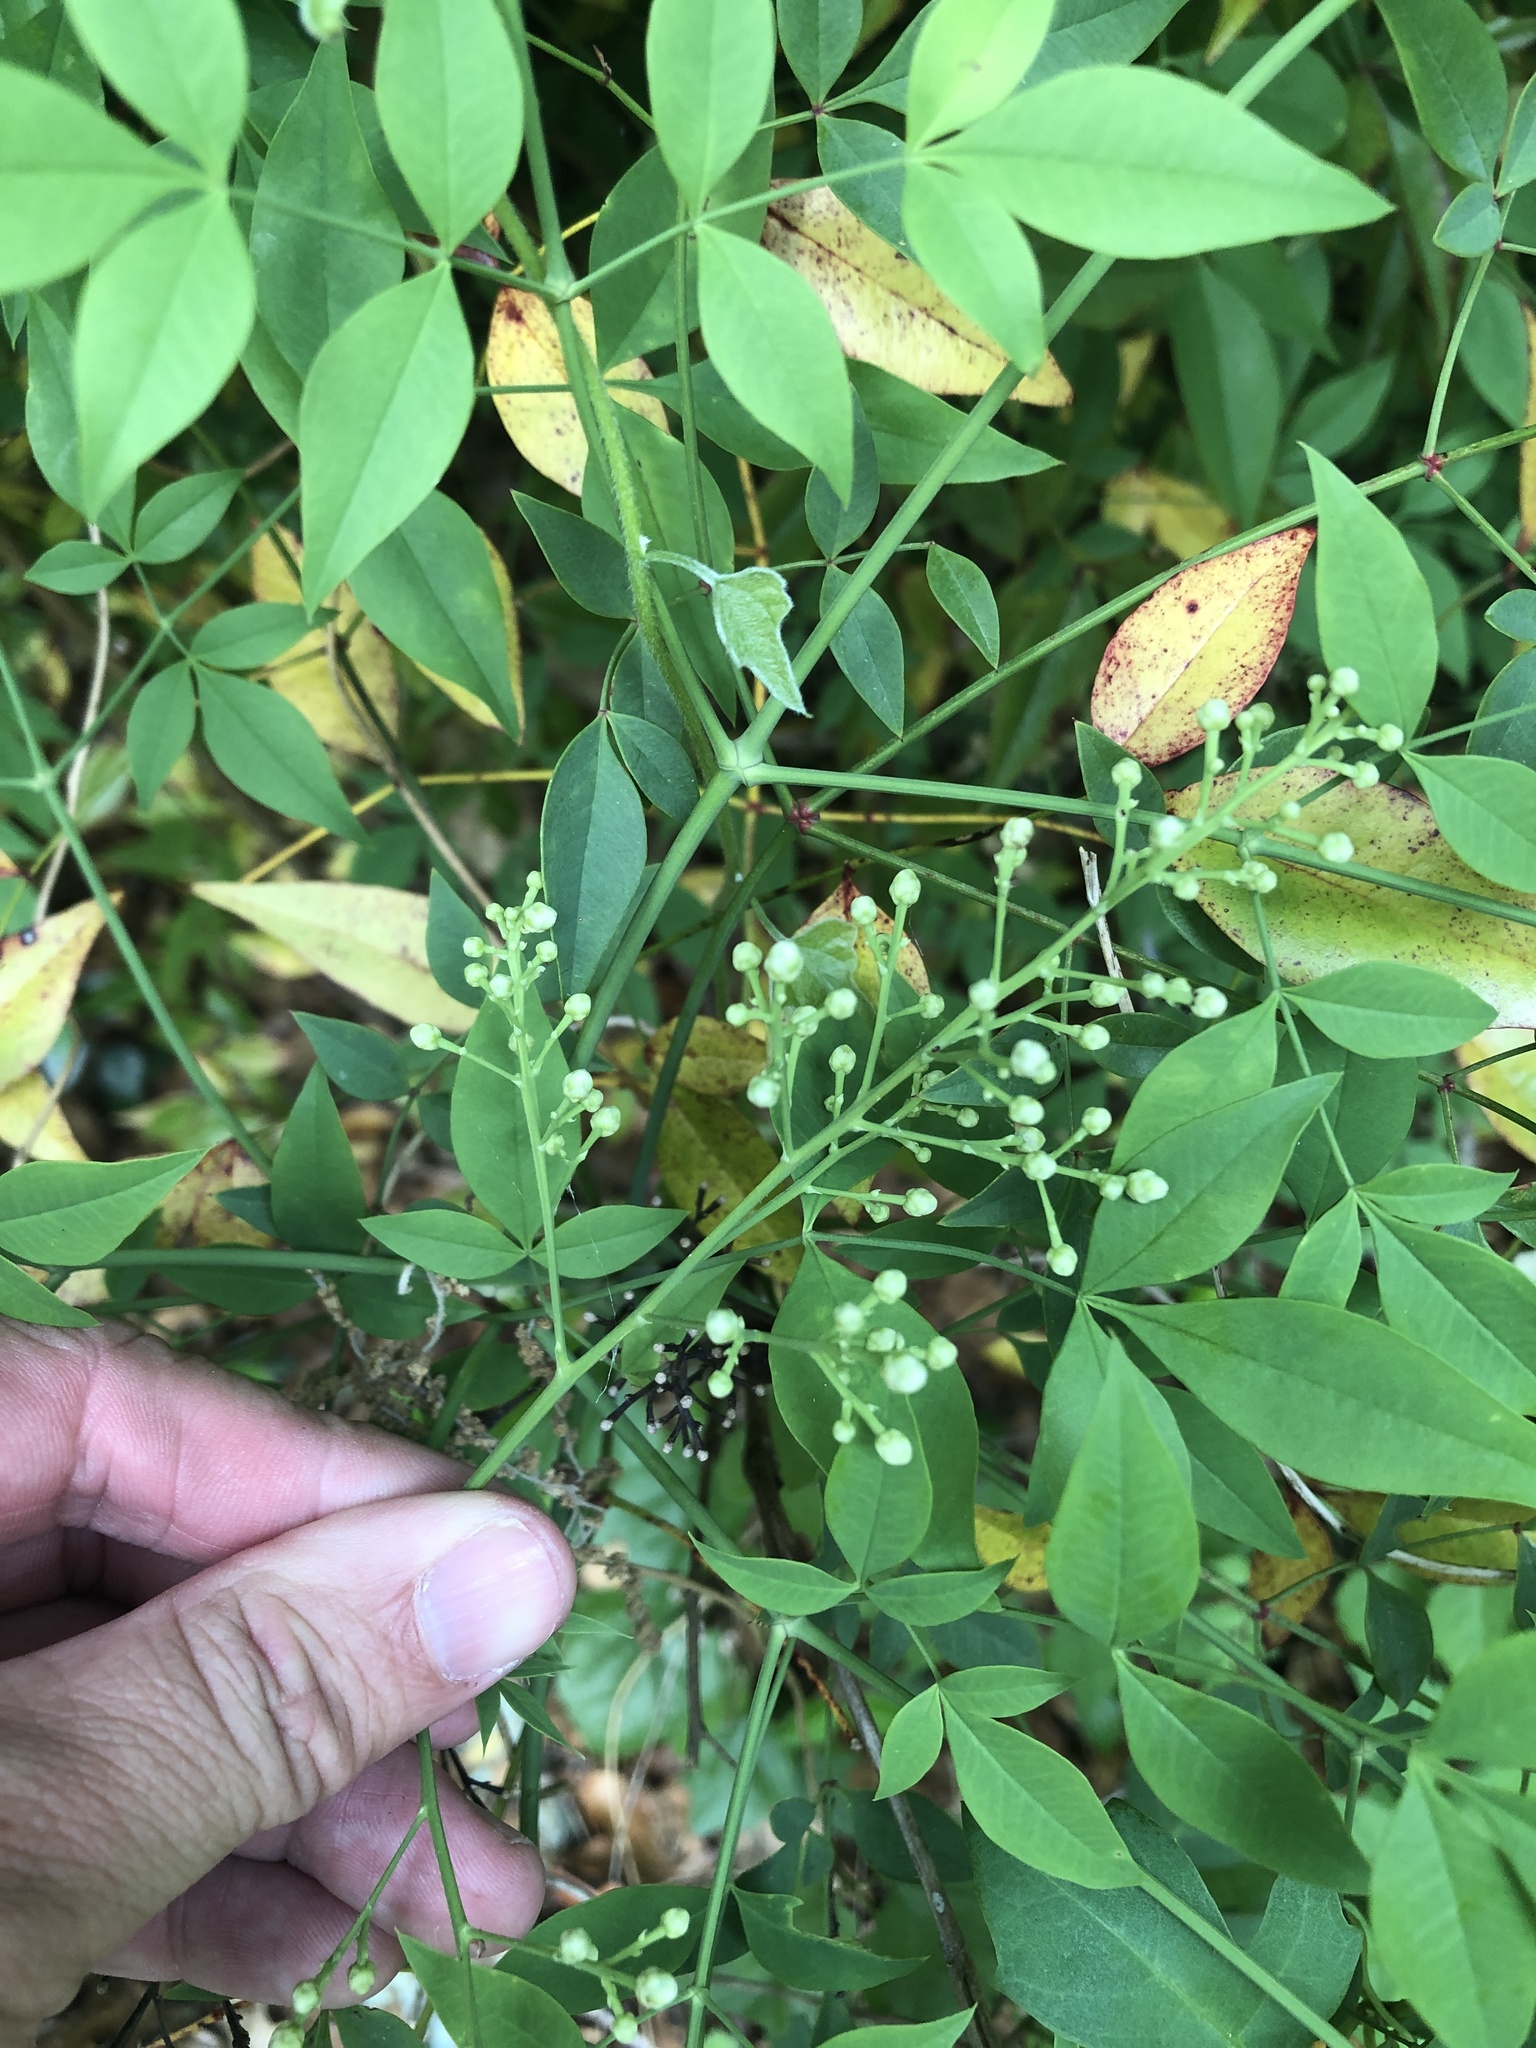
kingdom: Plantae
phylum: Tracheophyta
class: Magnoliopsida
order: Ranunculales
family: Berberidaceae
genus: Nandina
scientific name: Nandina domestica
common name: Sacred bamboo
